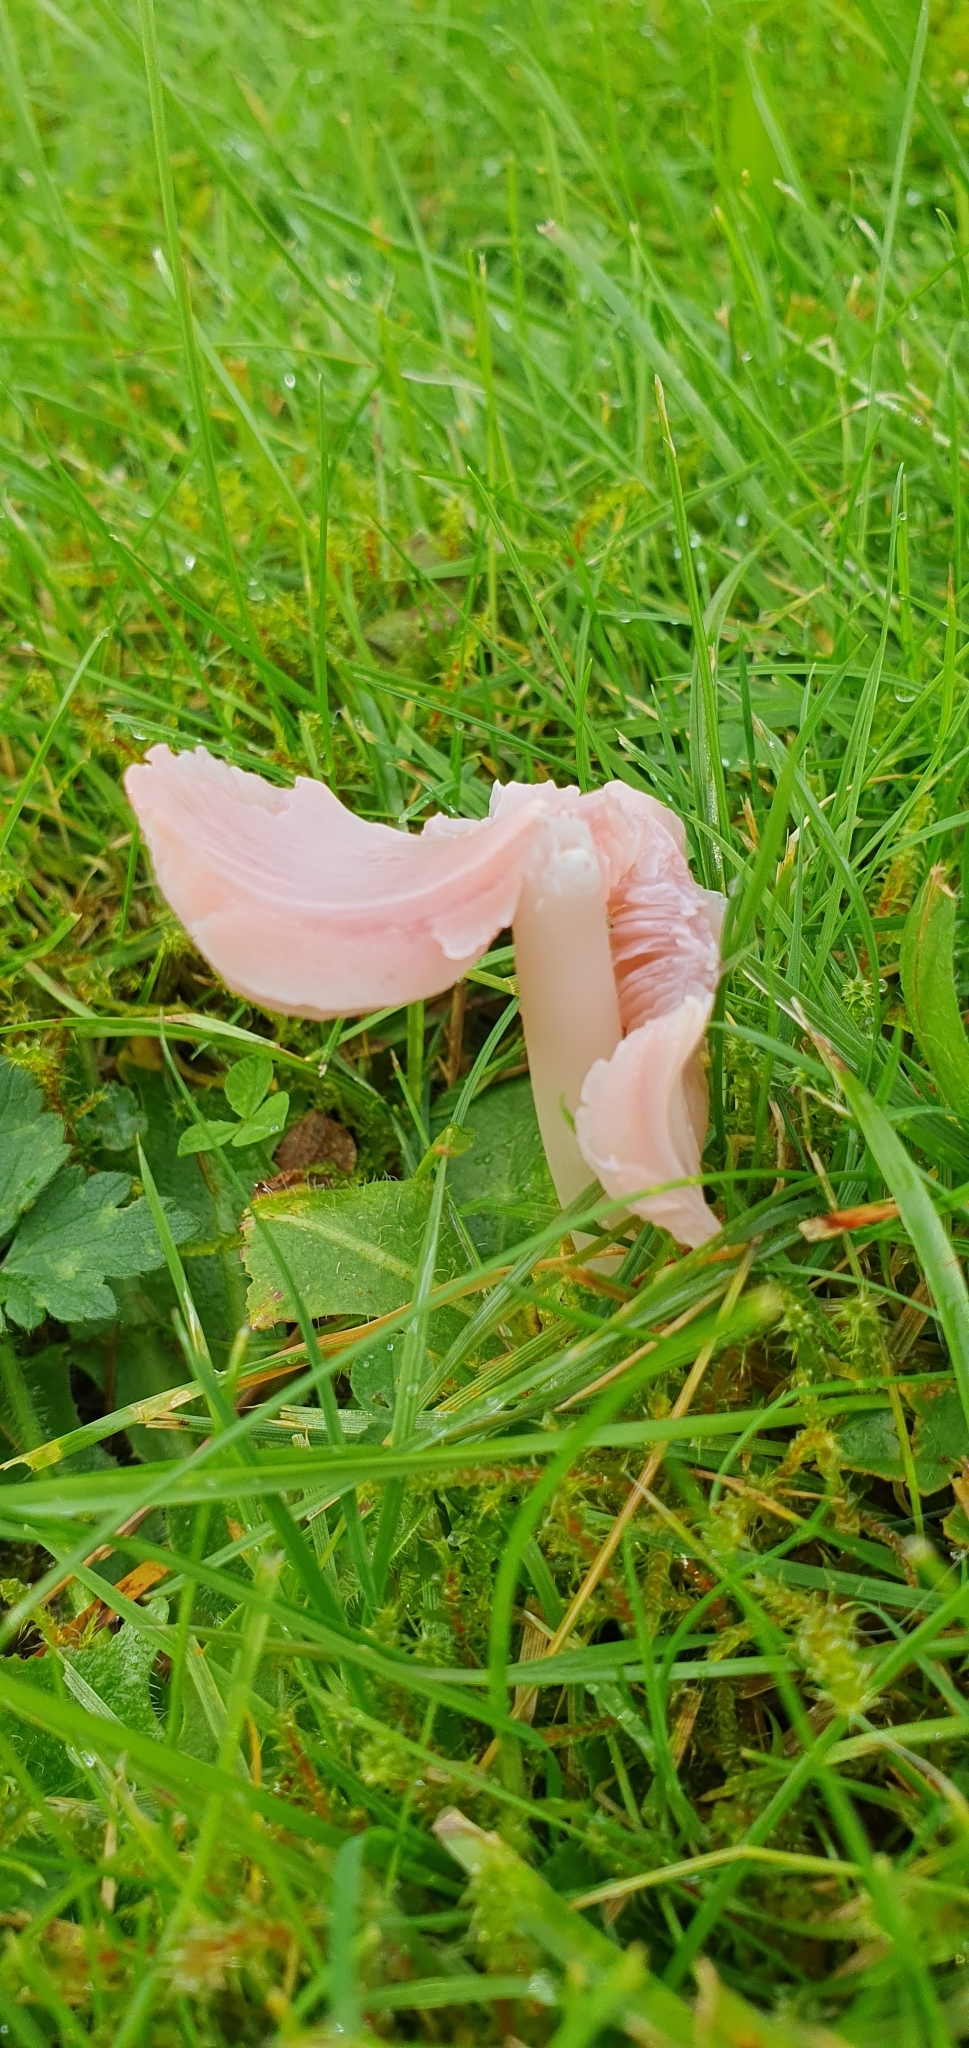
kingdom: Fungi
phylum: Basidiomycota
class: Agaricomycetes
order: Agaricales
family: Hygrophoraceae
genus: Porpolomopsis
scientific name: Porpolomopsis calyptriformis
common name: Pink waxcap
